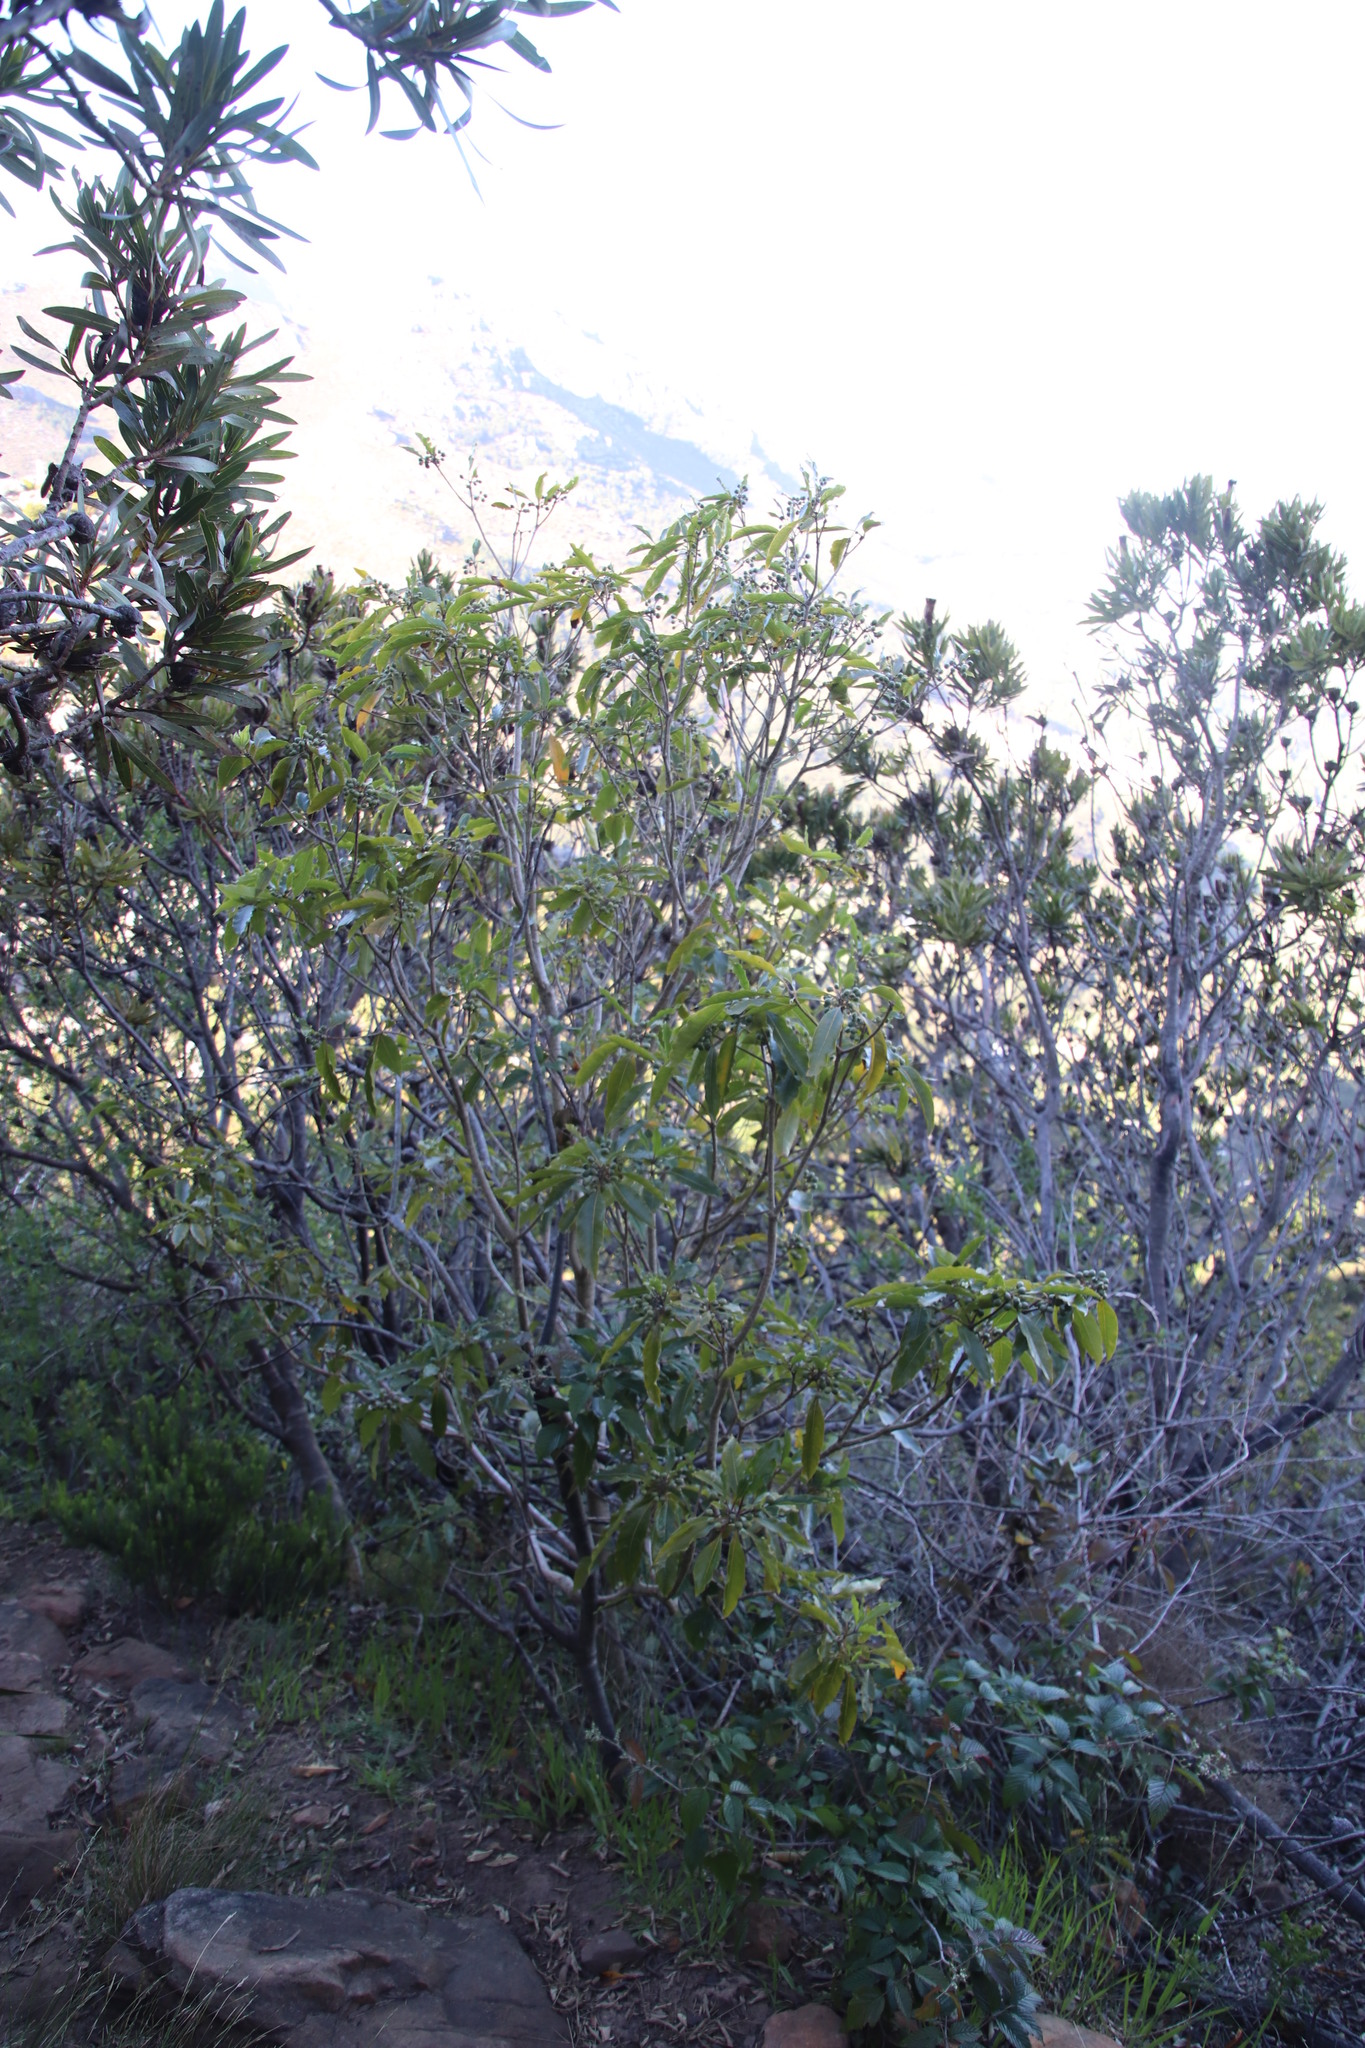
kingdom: Plantae
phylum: Tracheophyta
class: Magnoliopsida
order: Apiales
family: Pittosporaceae
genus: Pittosporum
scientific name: Pittosporum undulatum
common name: Australian cheesewood
